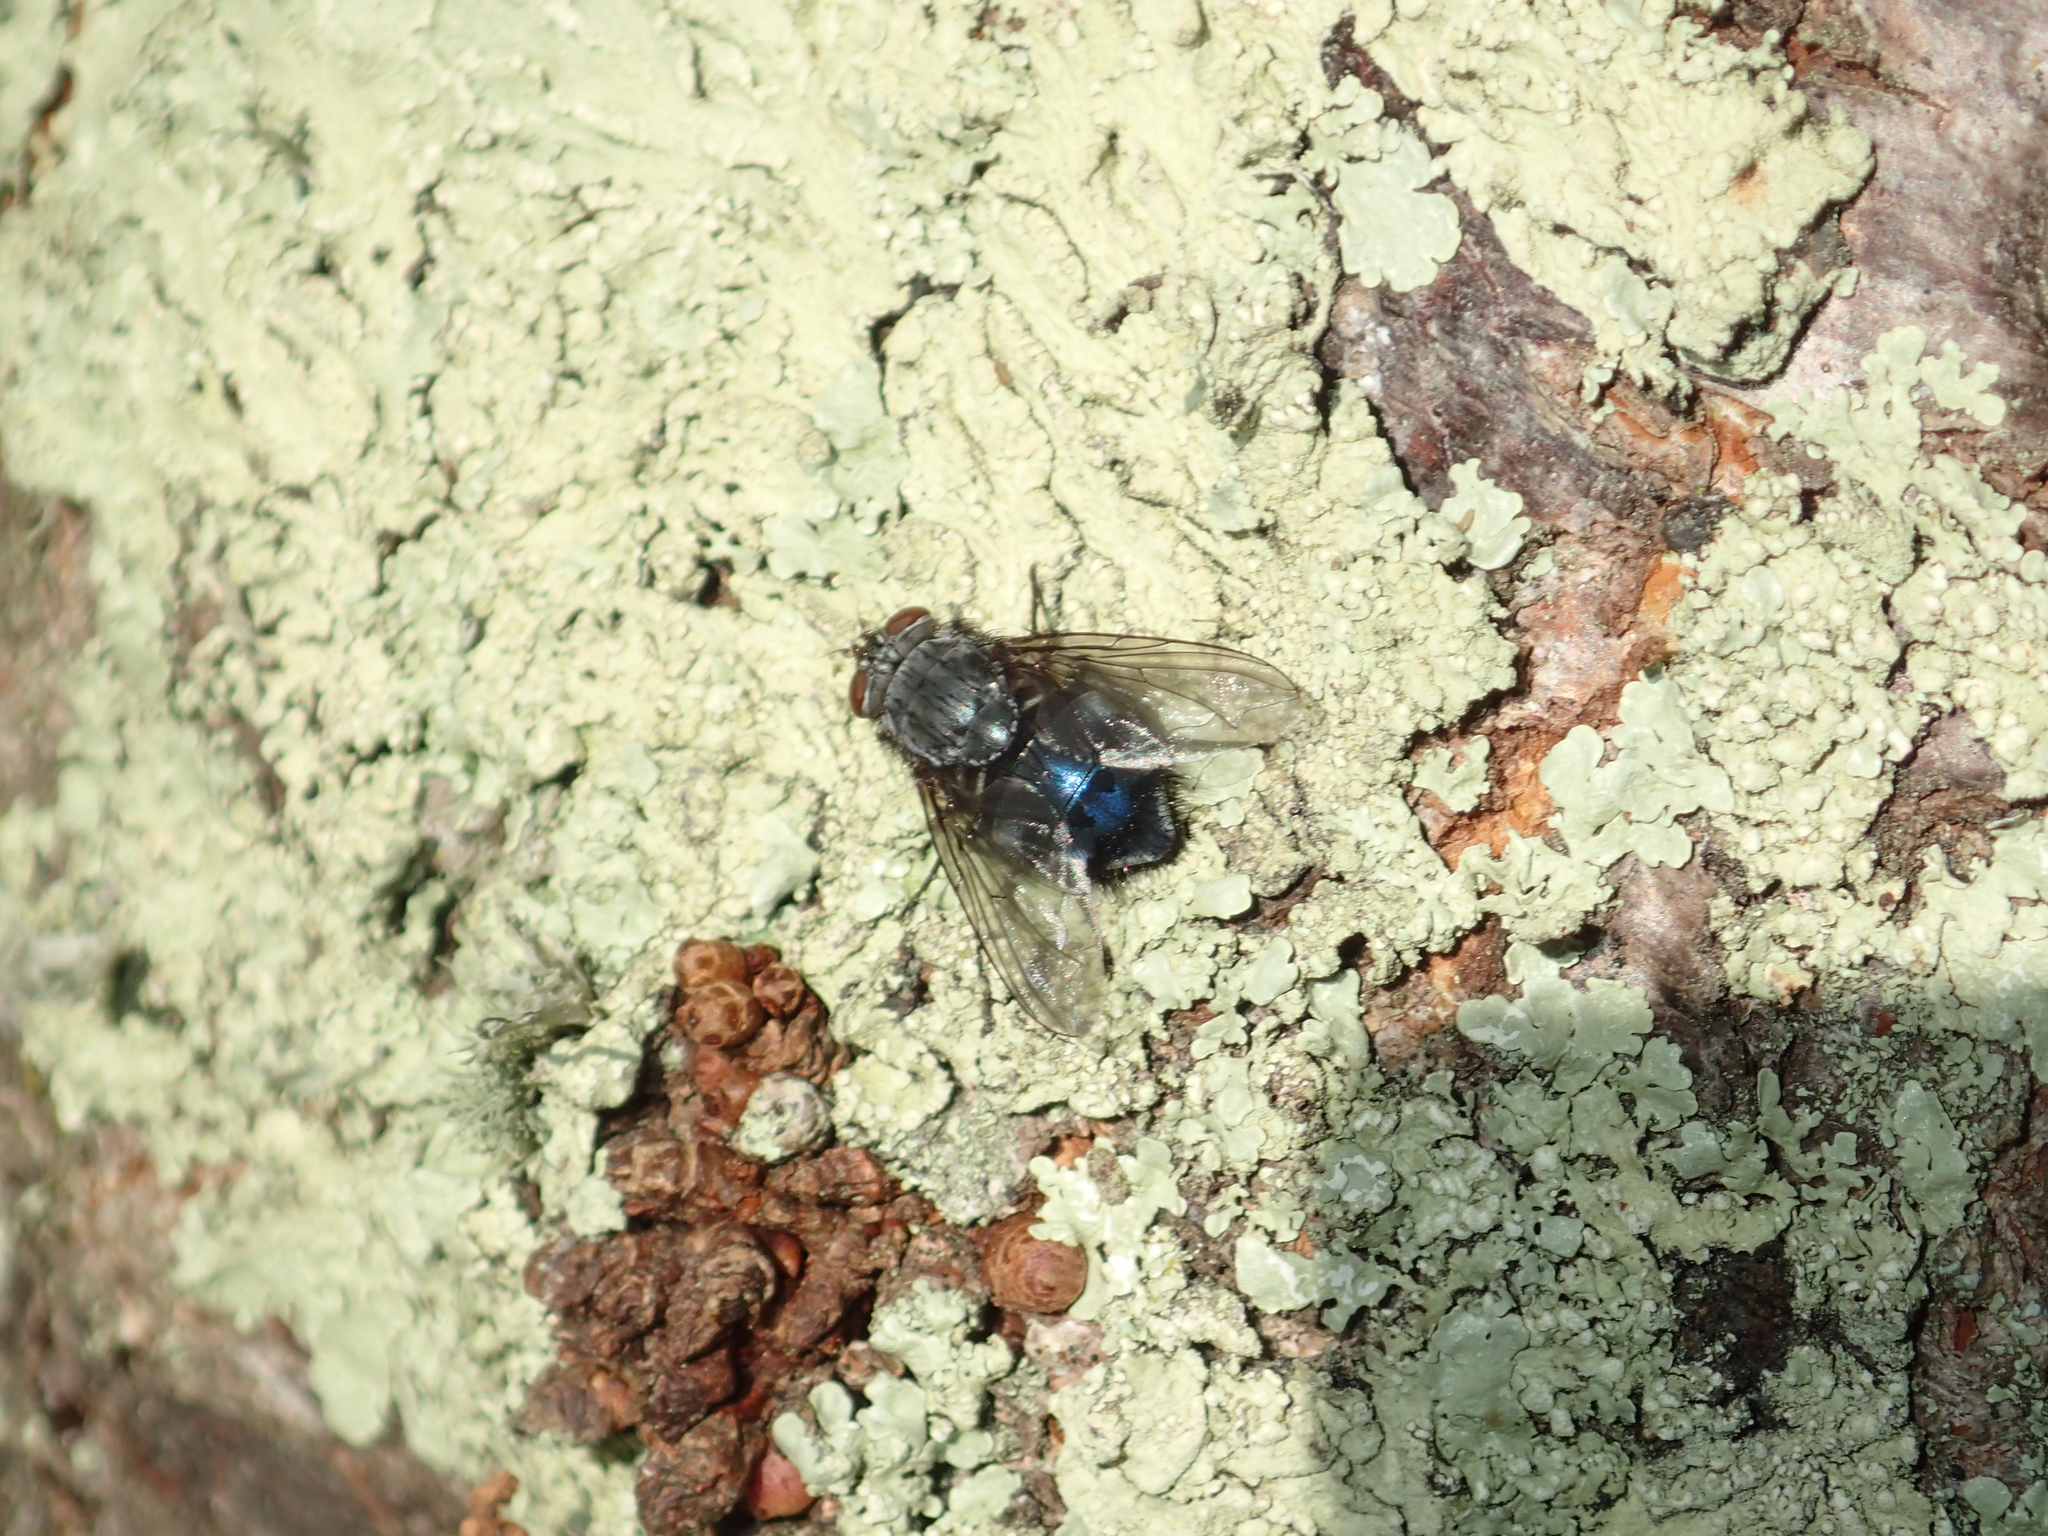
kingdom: Animalia
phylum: Arthropoda
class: Insecta
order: Diptera
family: Calliphoridae
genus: Calliphora
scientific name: Calliphora vicina
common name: Common blow flie
